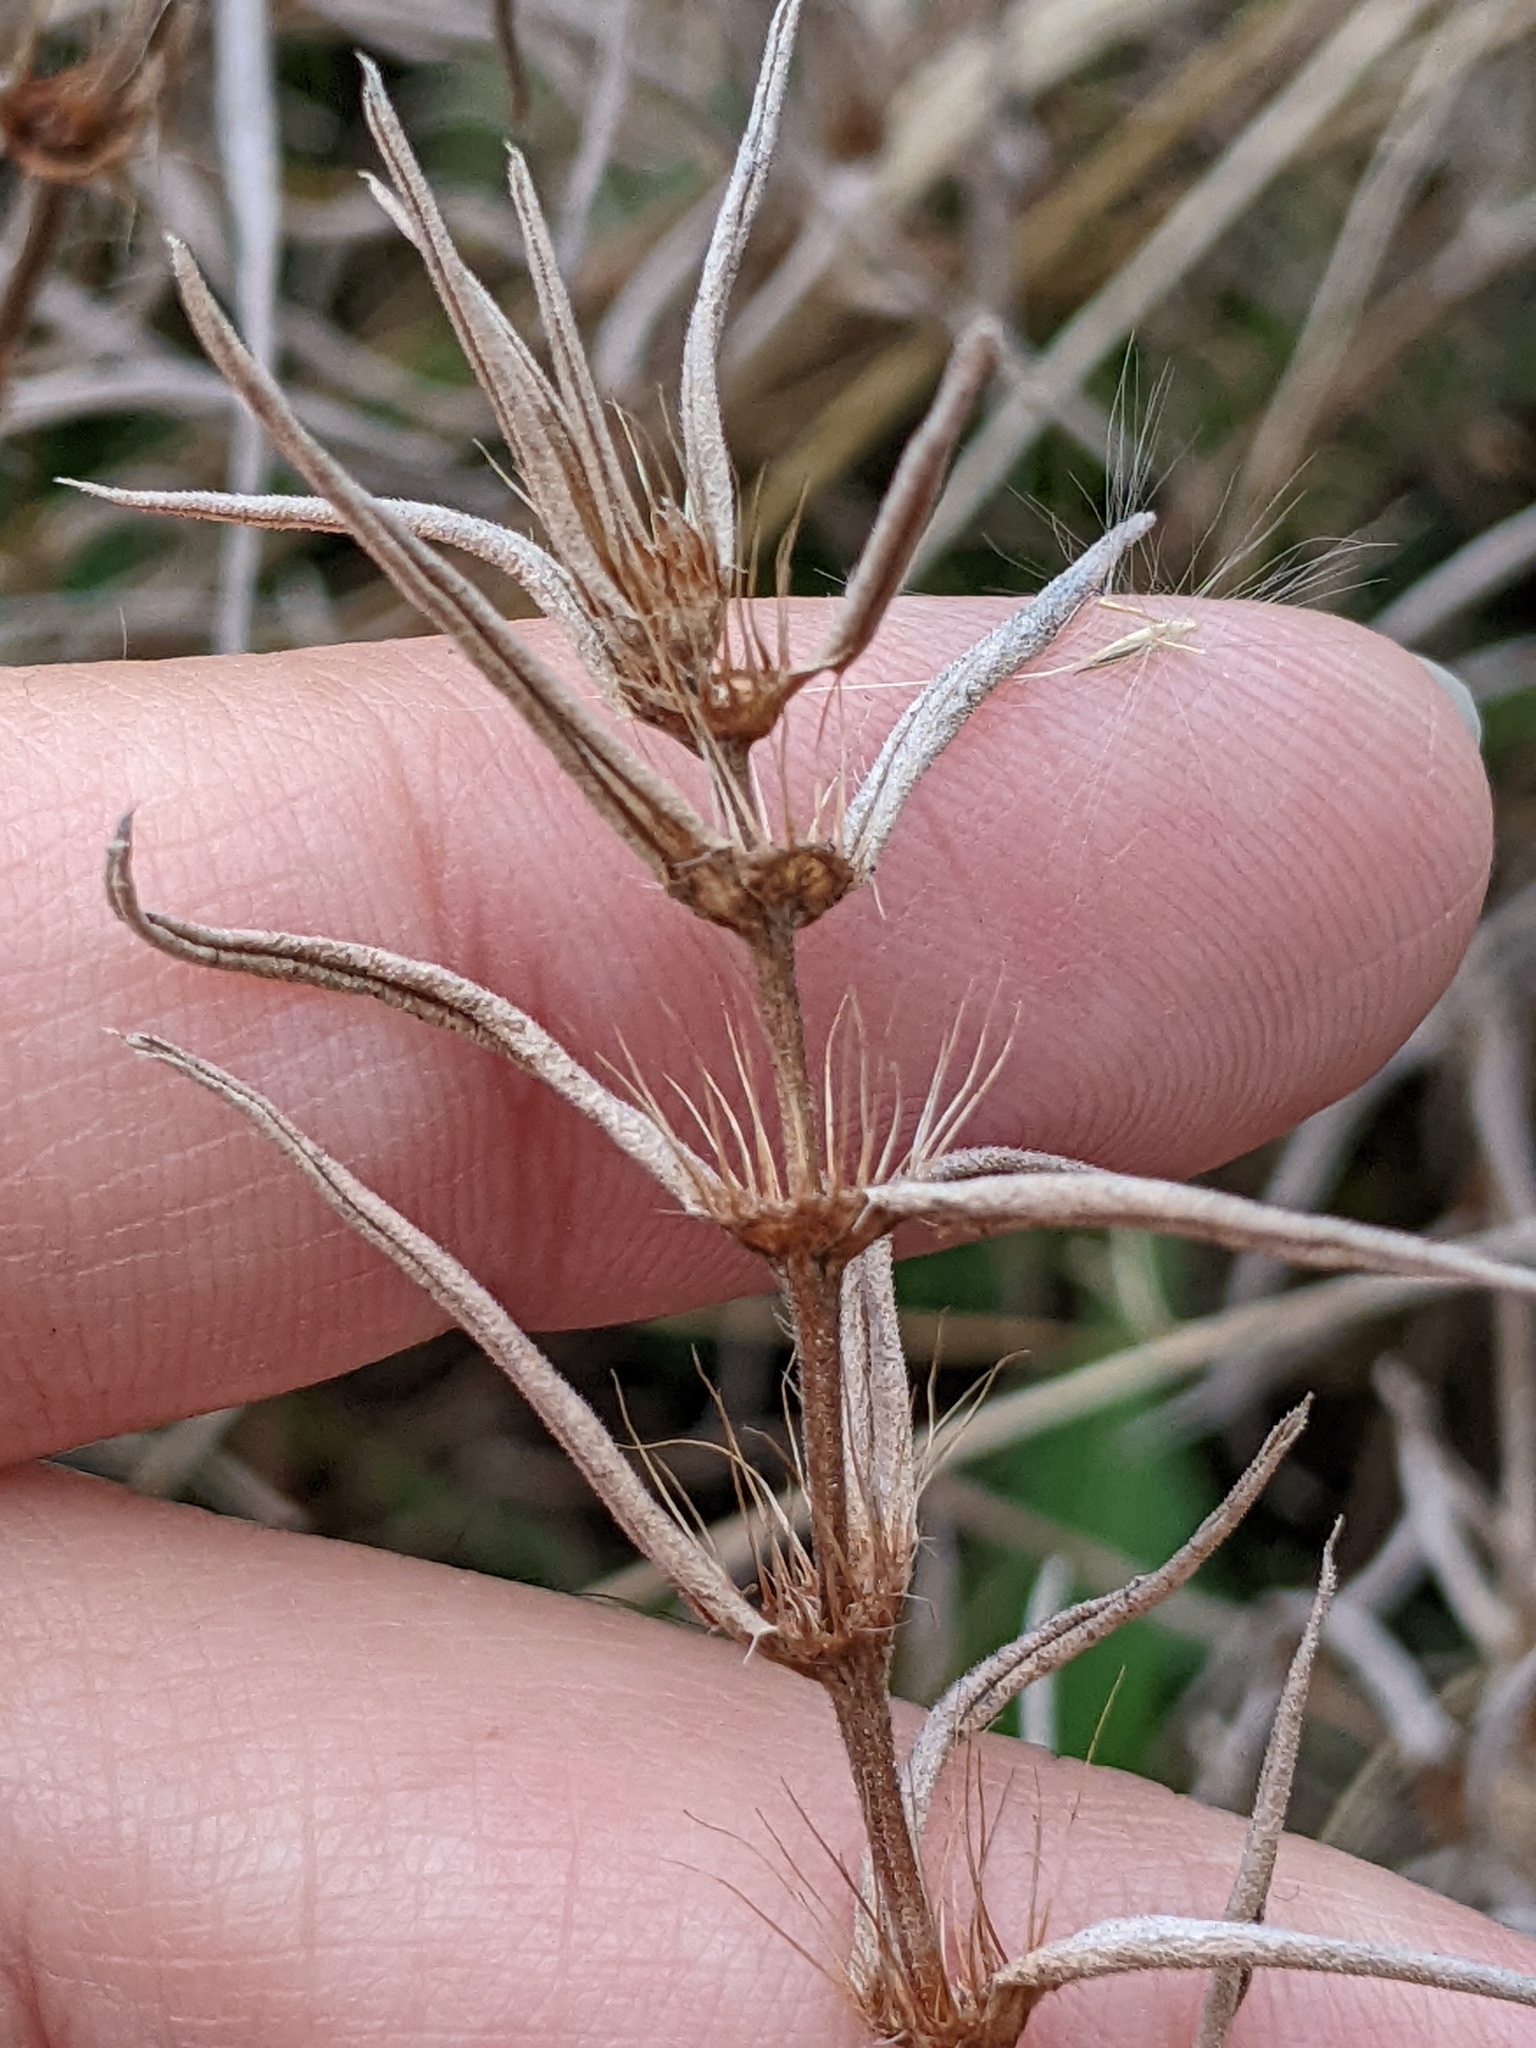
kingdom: Plantae
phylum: Tracheophyta
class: Magnoliopsida
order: Gentianales
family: Rubiaceae
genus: Hexasepalum
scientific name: Hexasepalum teres
